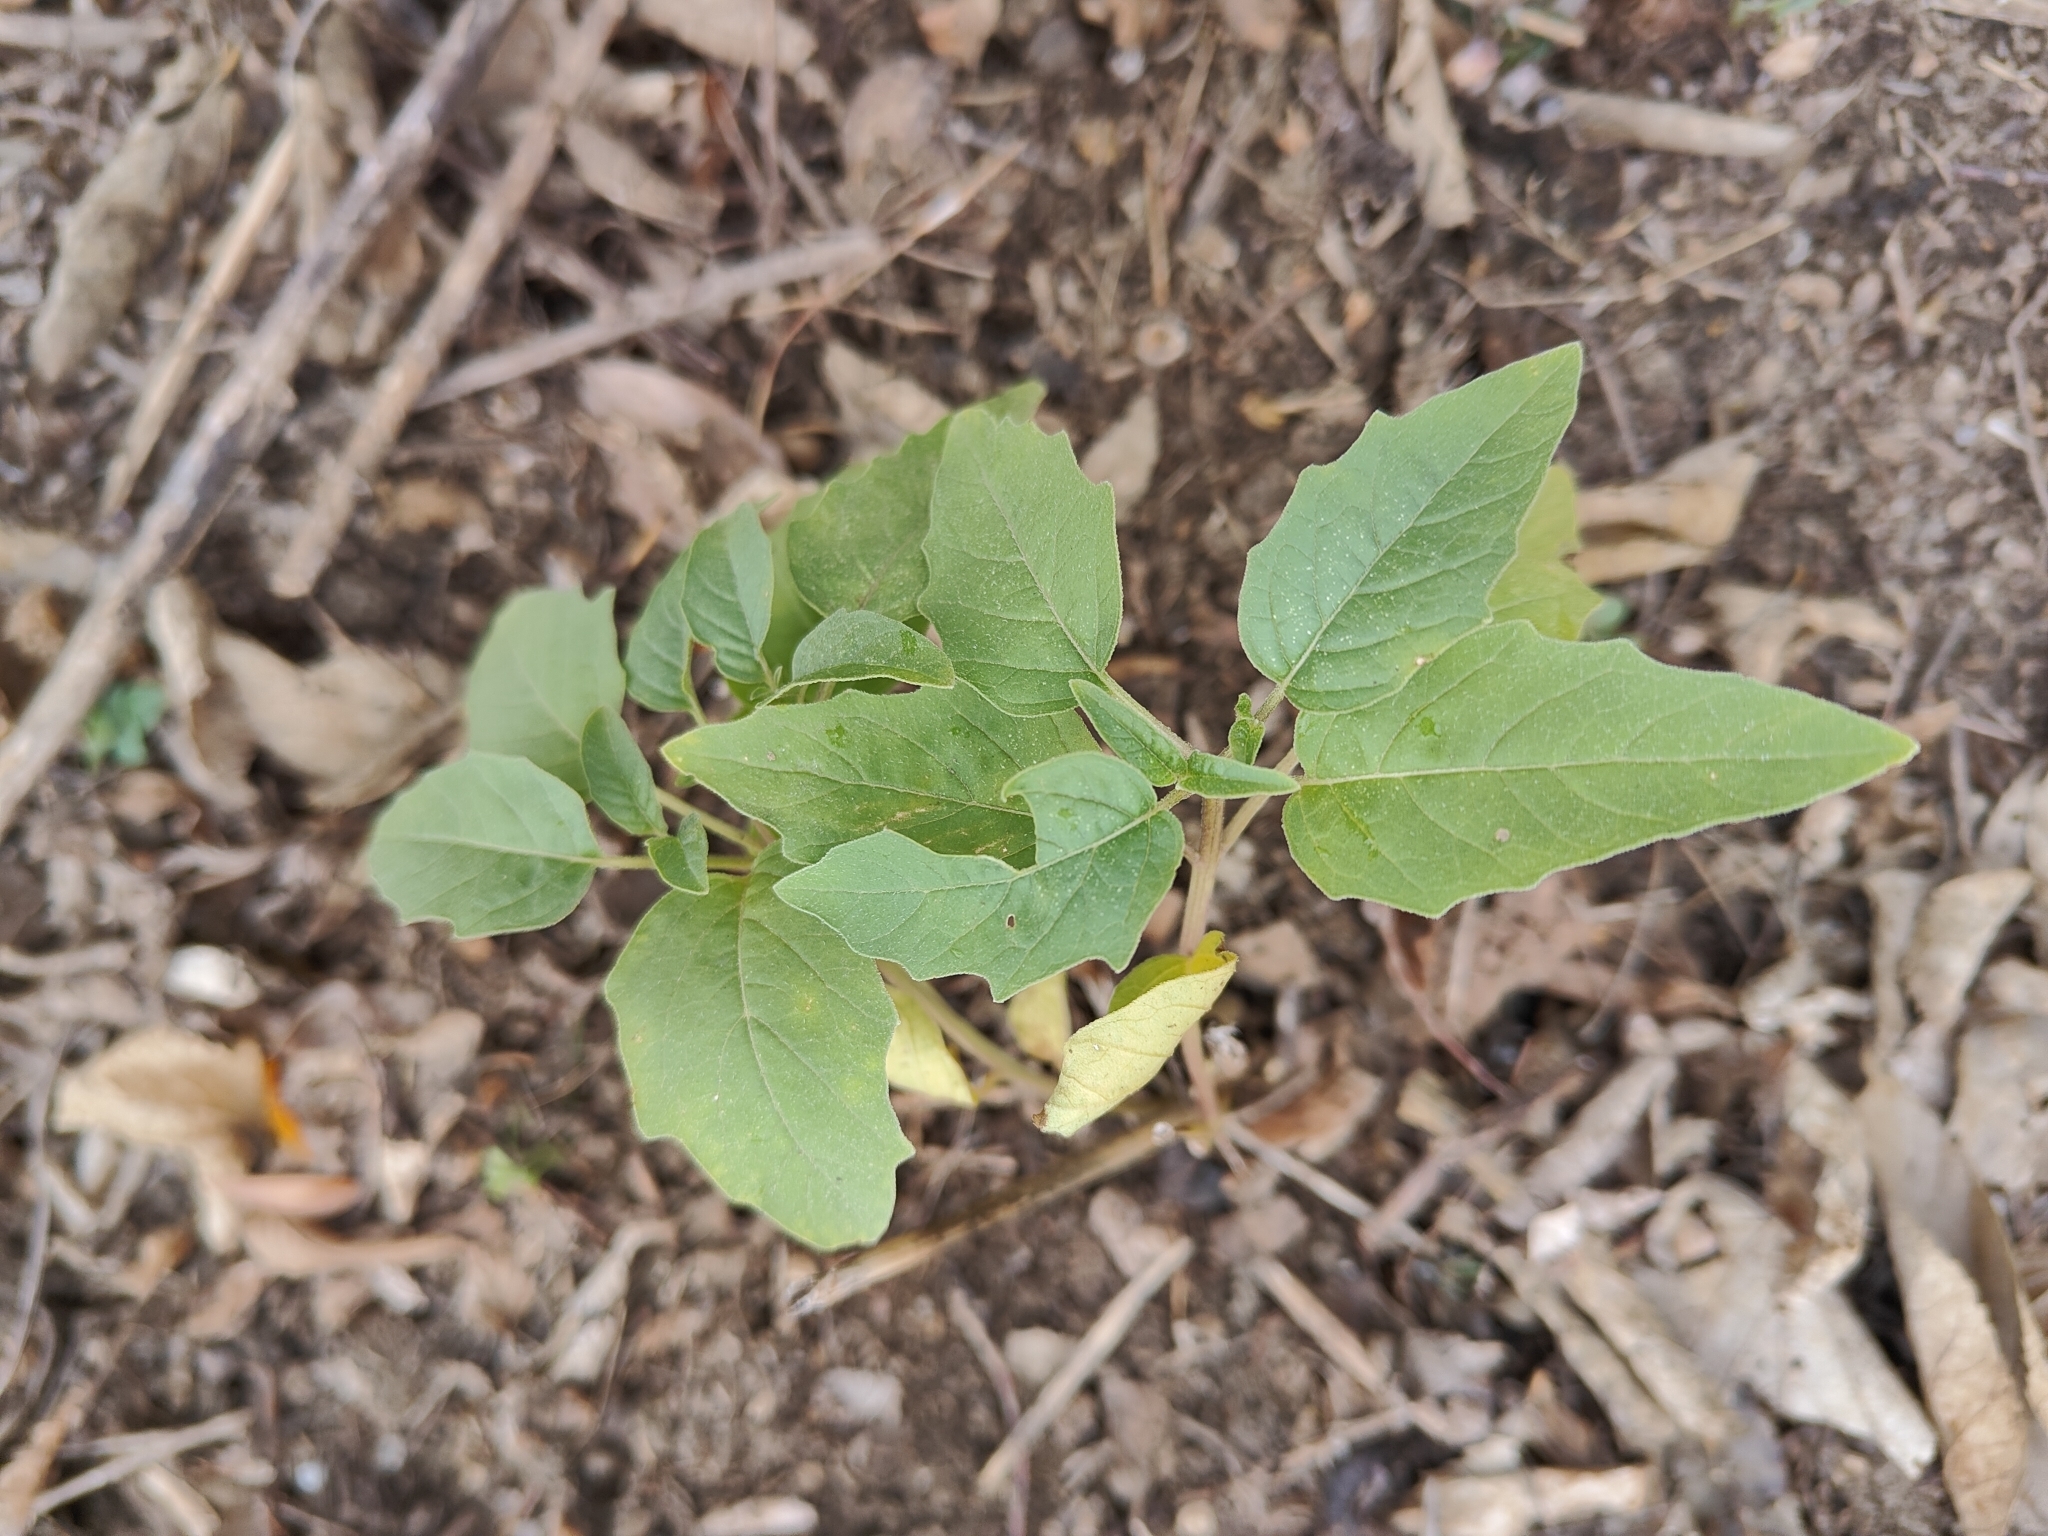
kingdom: Plantae
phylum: Tracheophyta
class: Magnoliopsida
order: Solanales
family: Solanaceae
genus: Physalis
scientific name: Physalis longifolia
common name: Common ground-cherry
